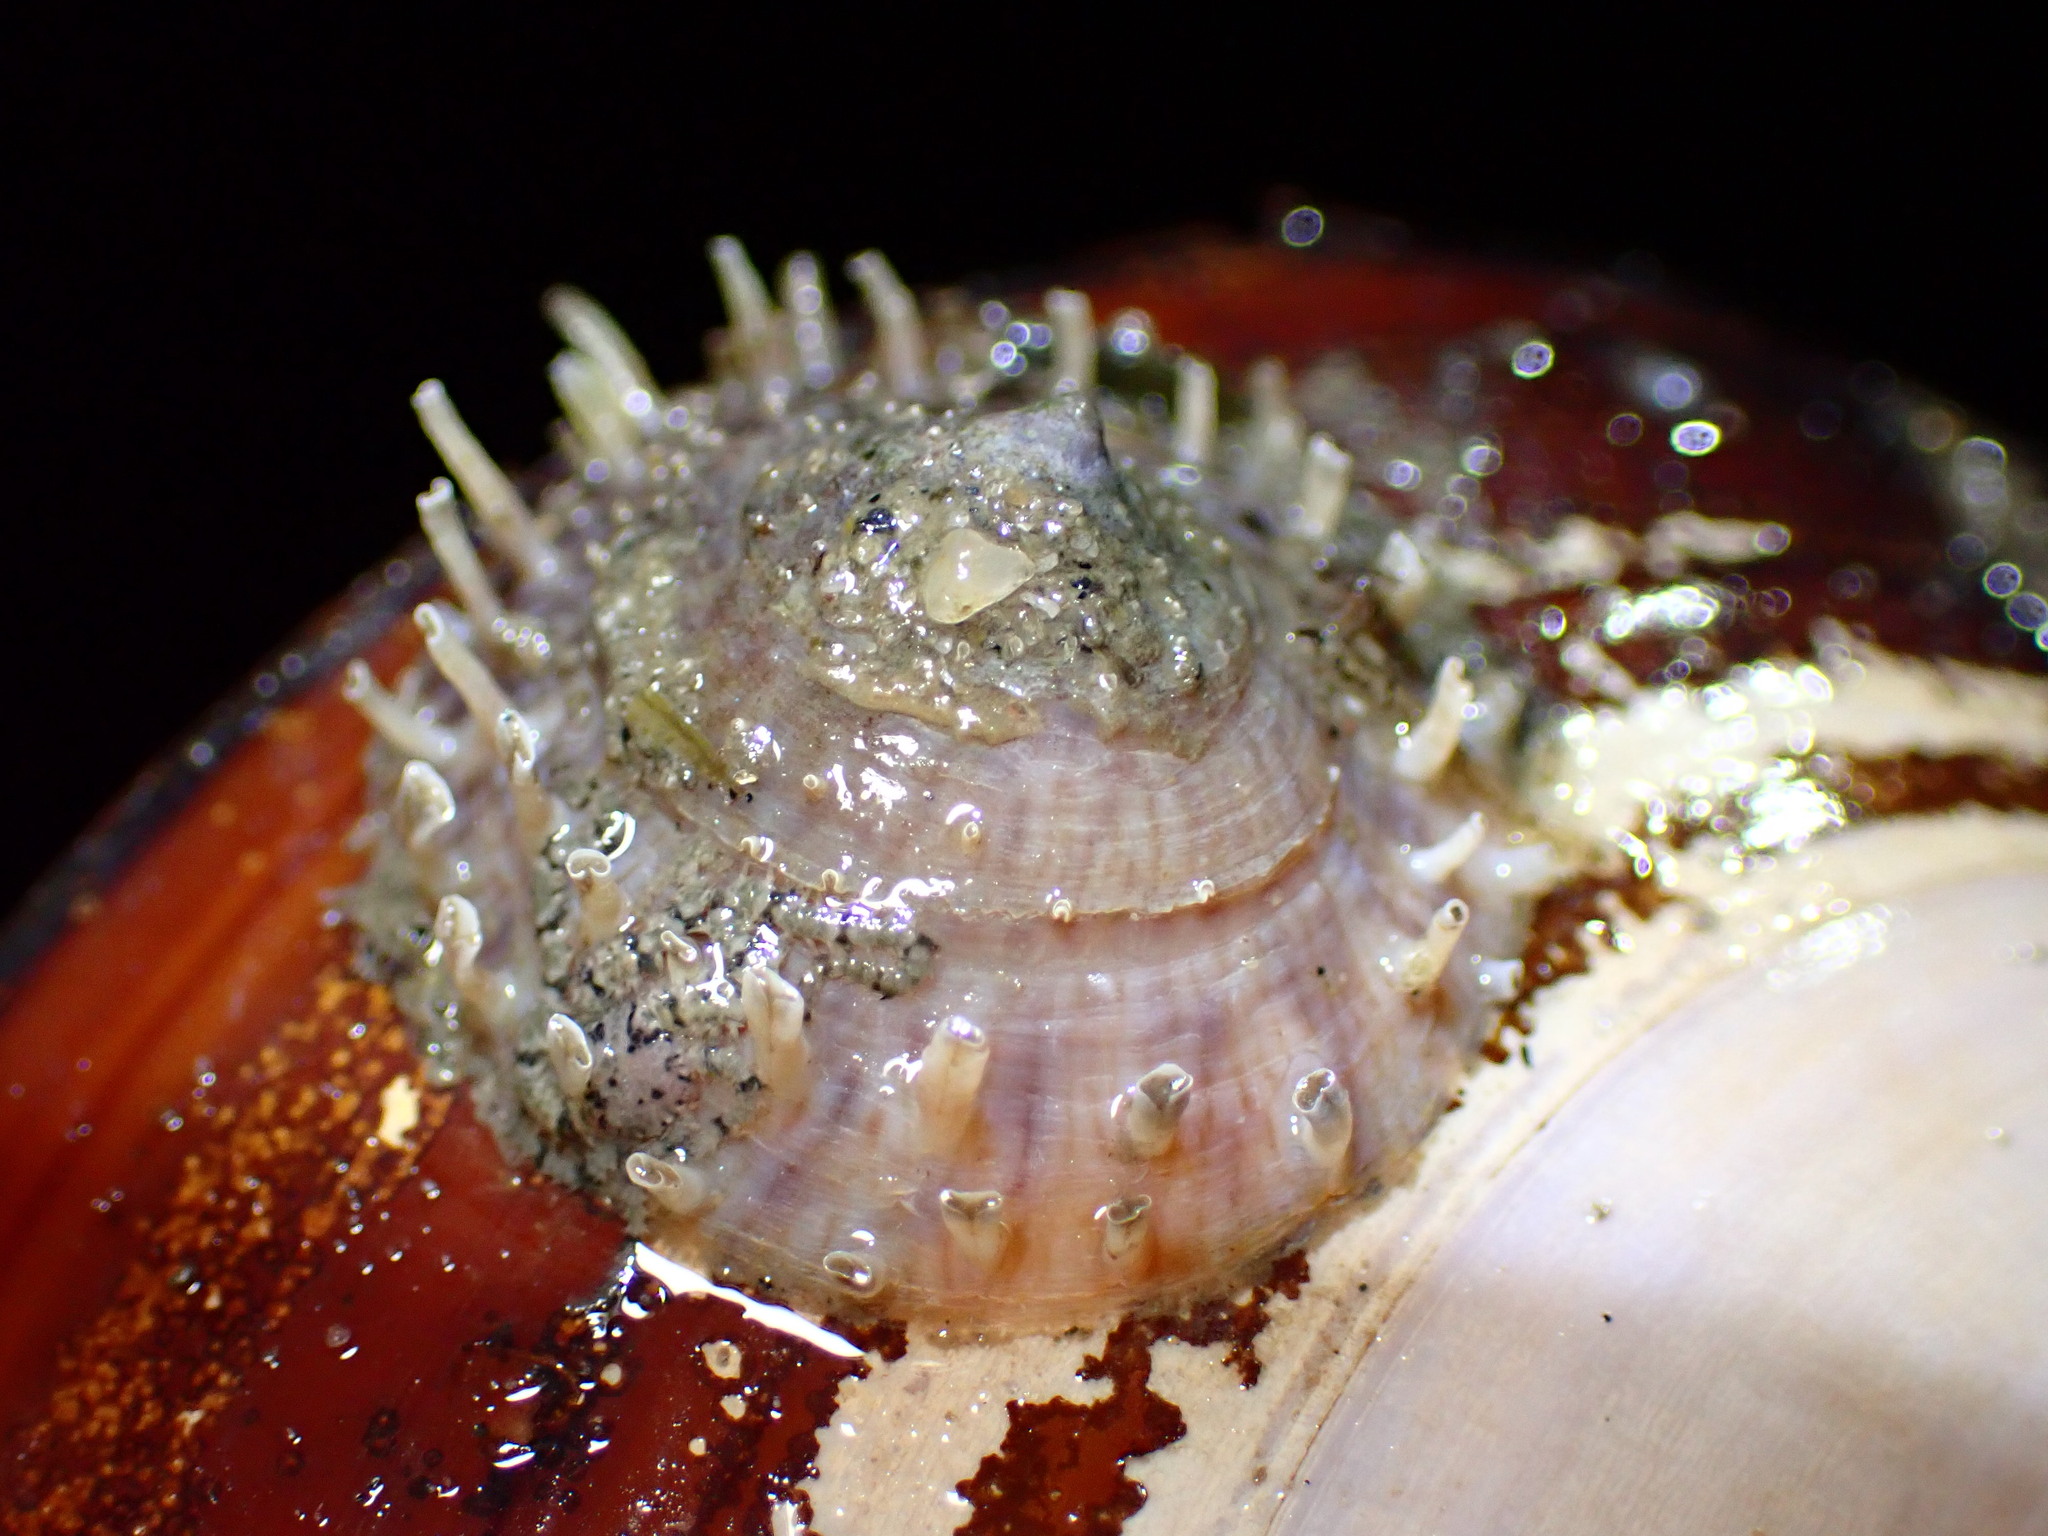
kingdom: Animalia
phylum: Mollusca
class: Gastropoda
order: Littorinimorpha
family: Calyptraeidae
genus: Crucibulum
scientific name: Crucibulum spinosum
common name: Spiny cup-and-saucer
